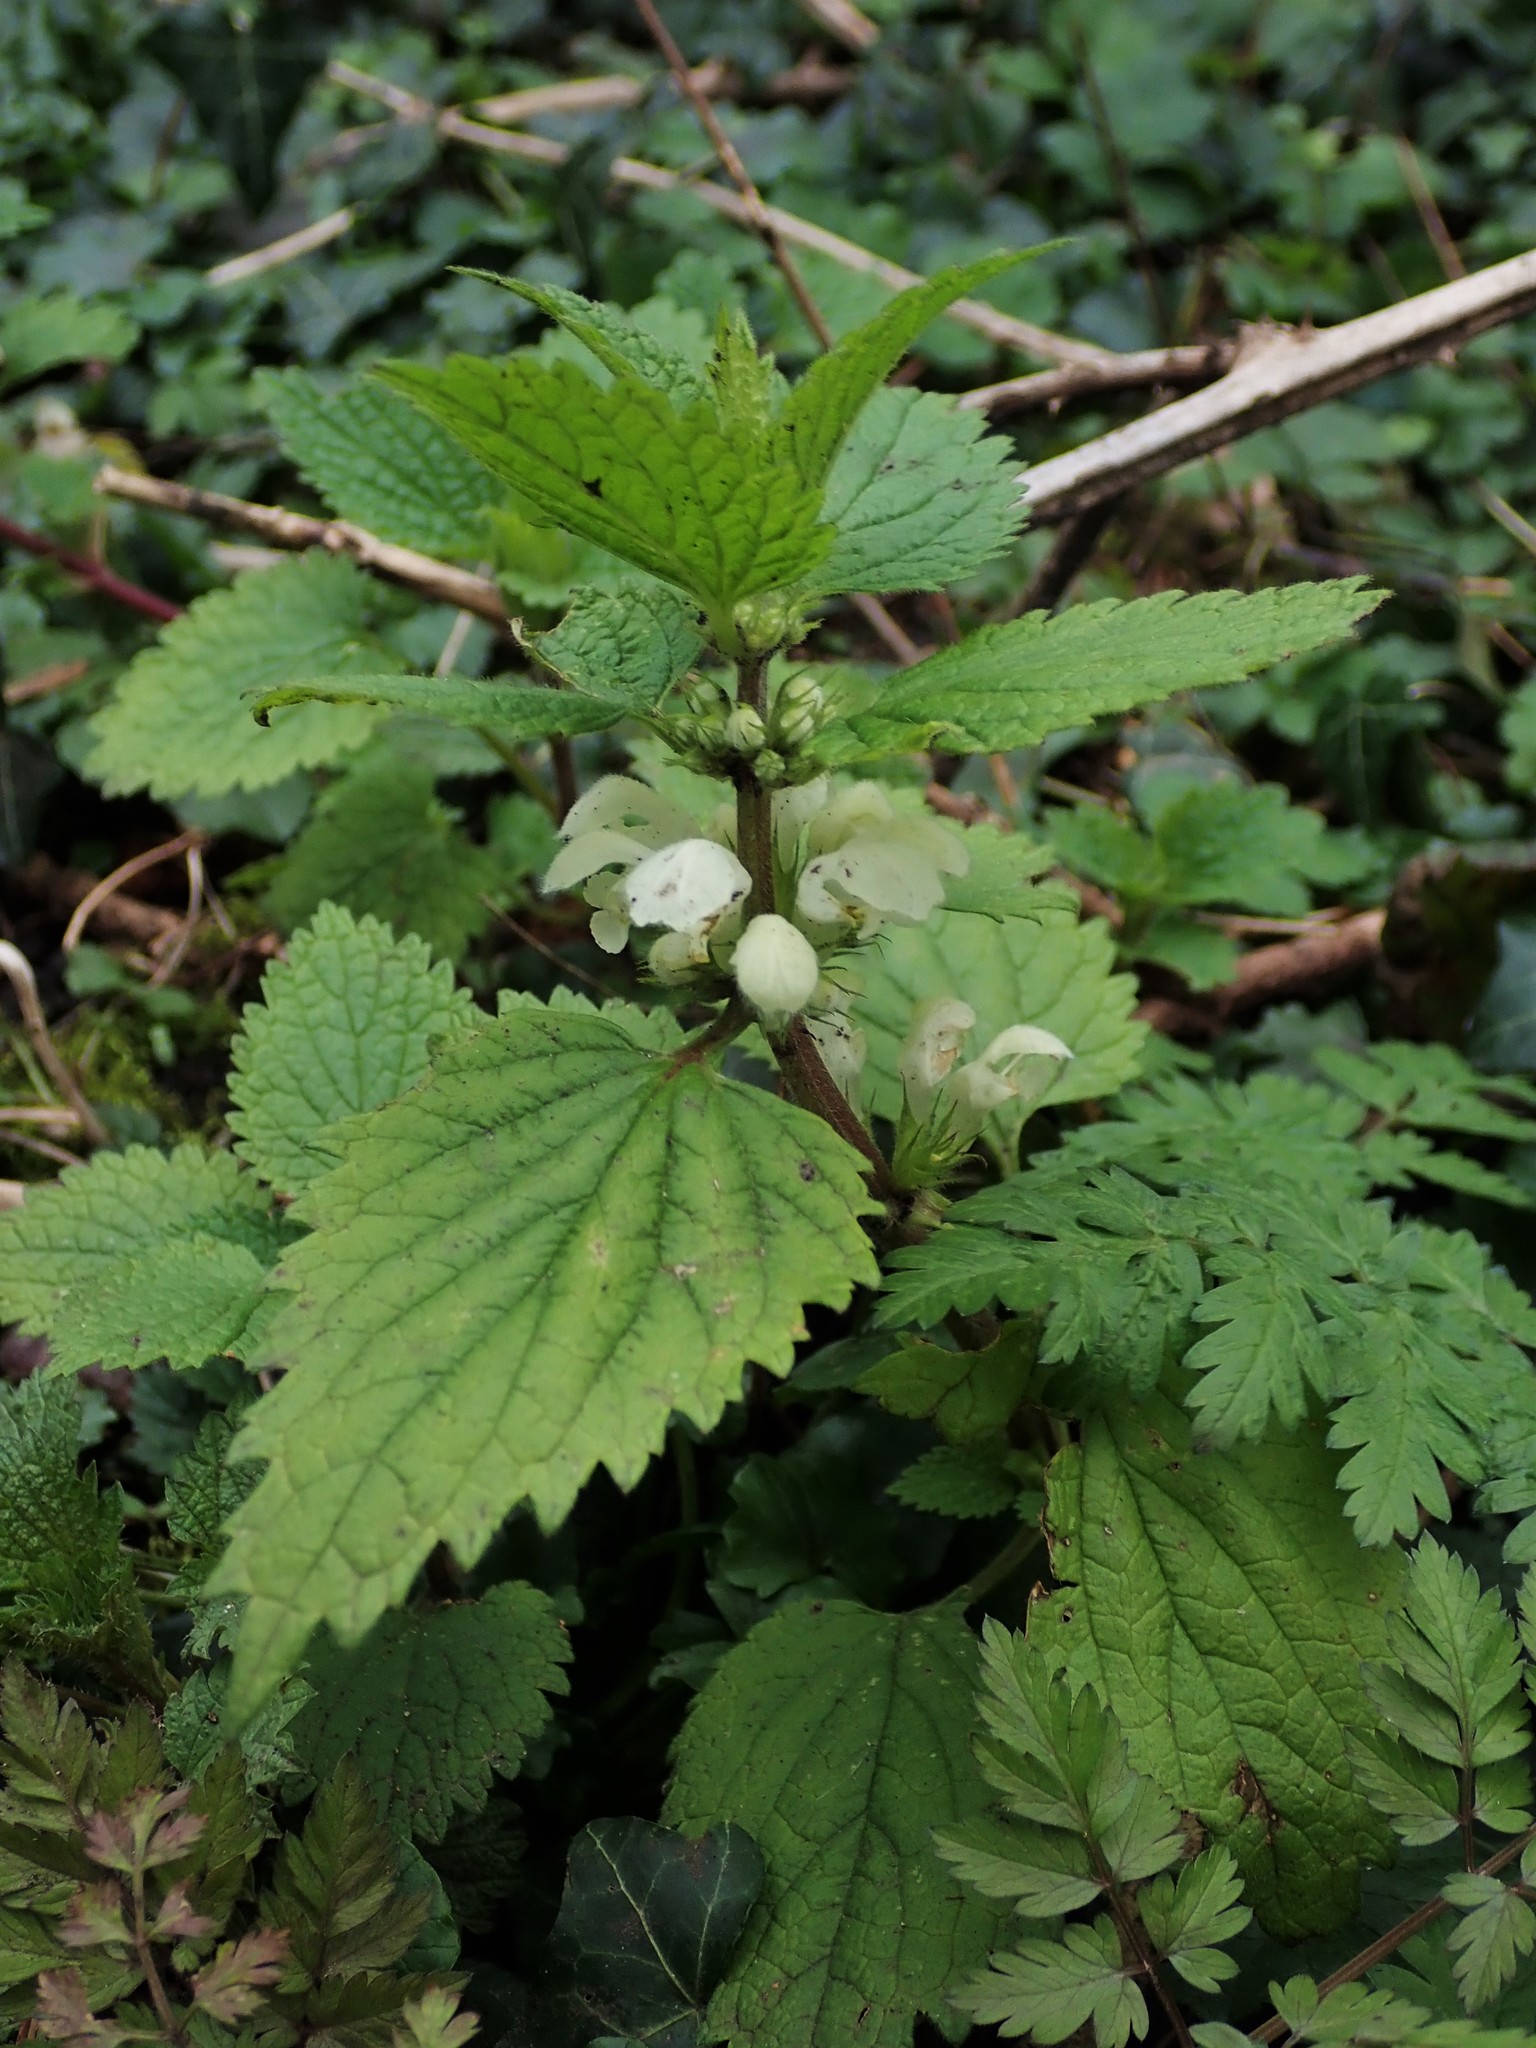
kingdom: Plantae
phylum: Tracheophyta
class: Magnoliopsida
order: Lamiales
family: Lamiaceae
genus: Lamium
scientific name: Lamium album
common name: White dead-nettle
